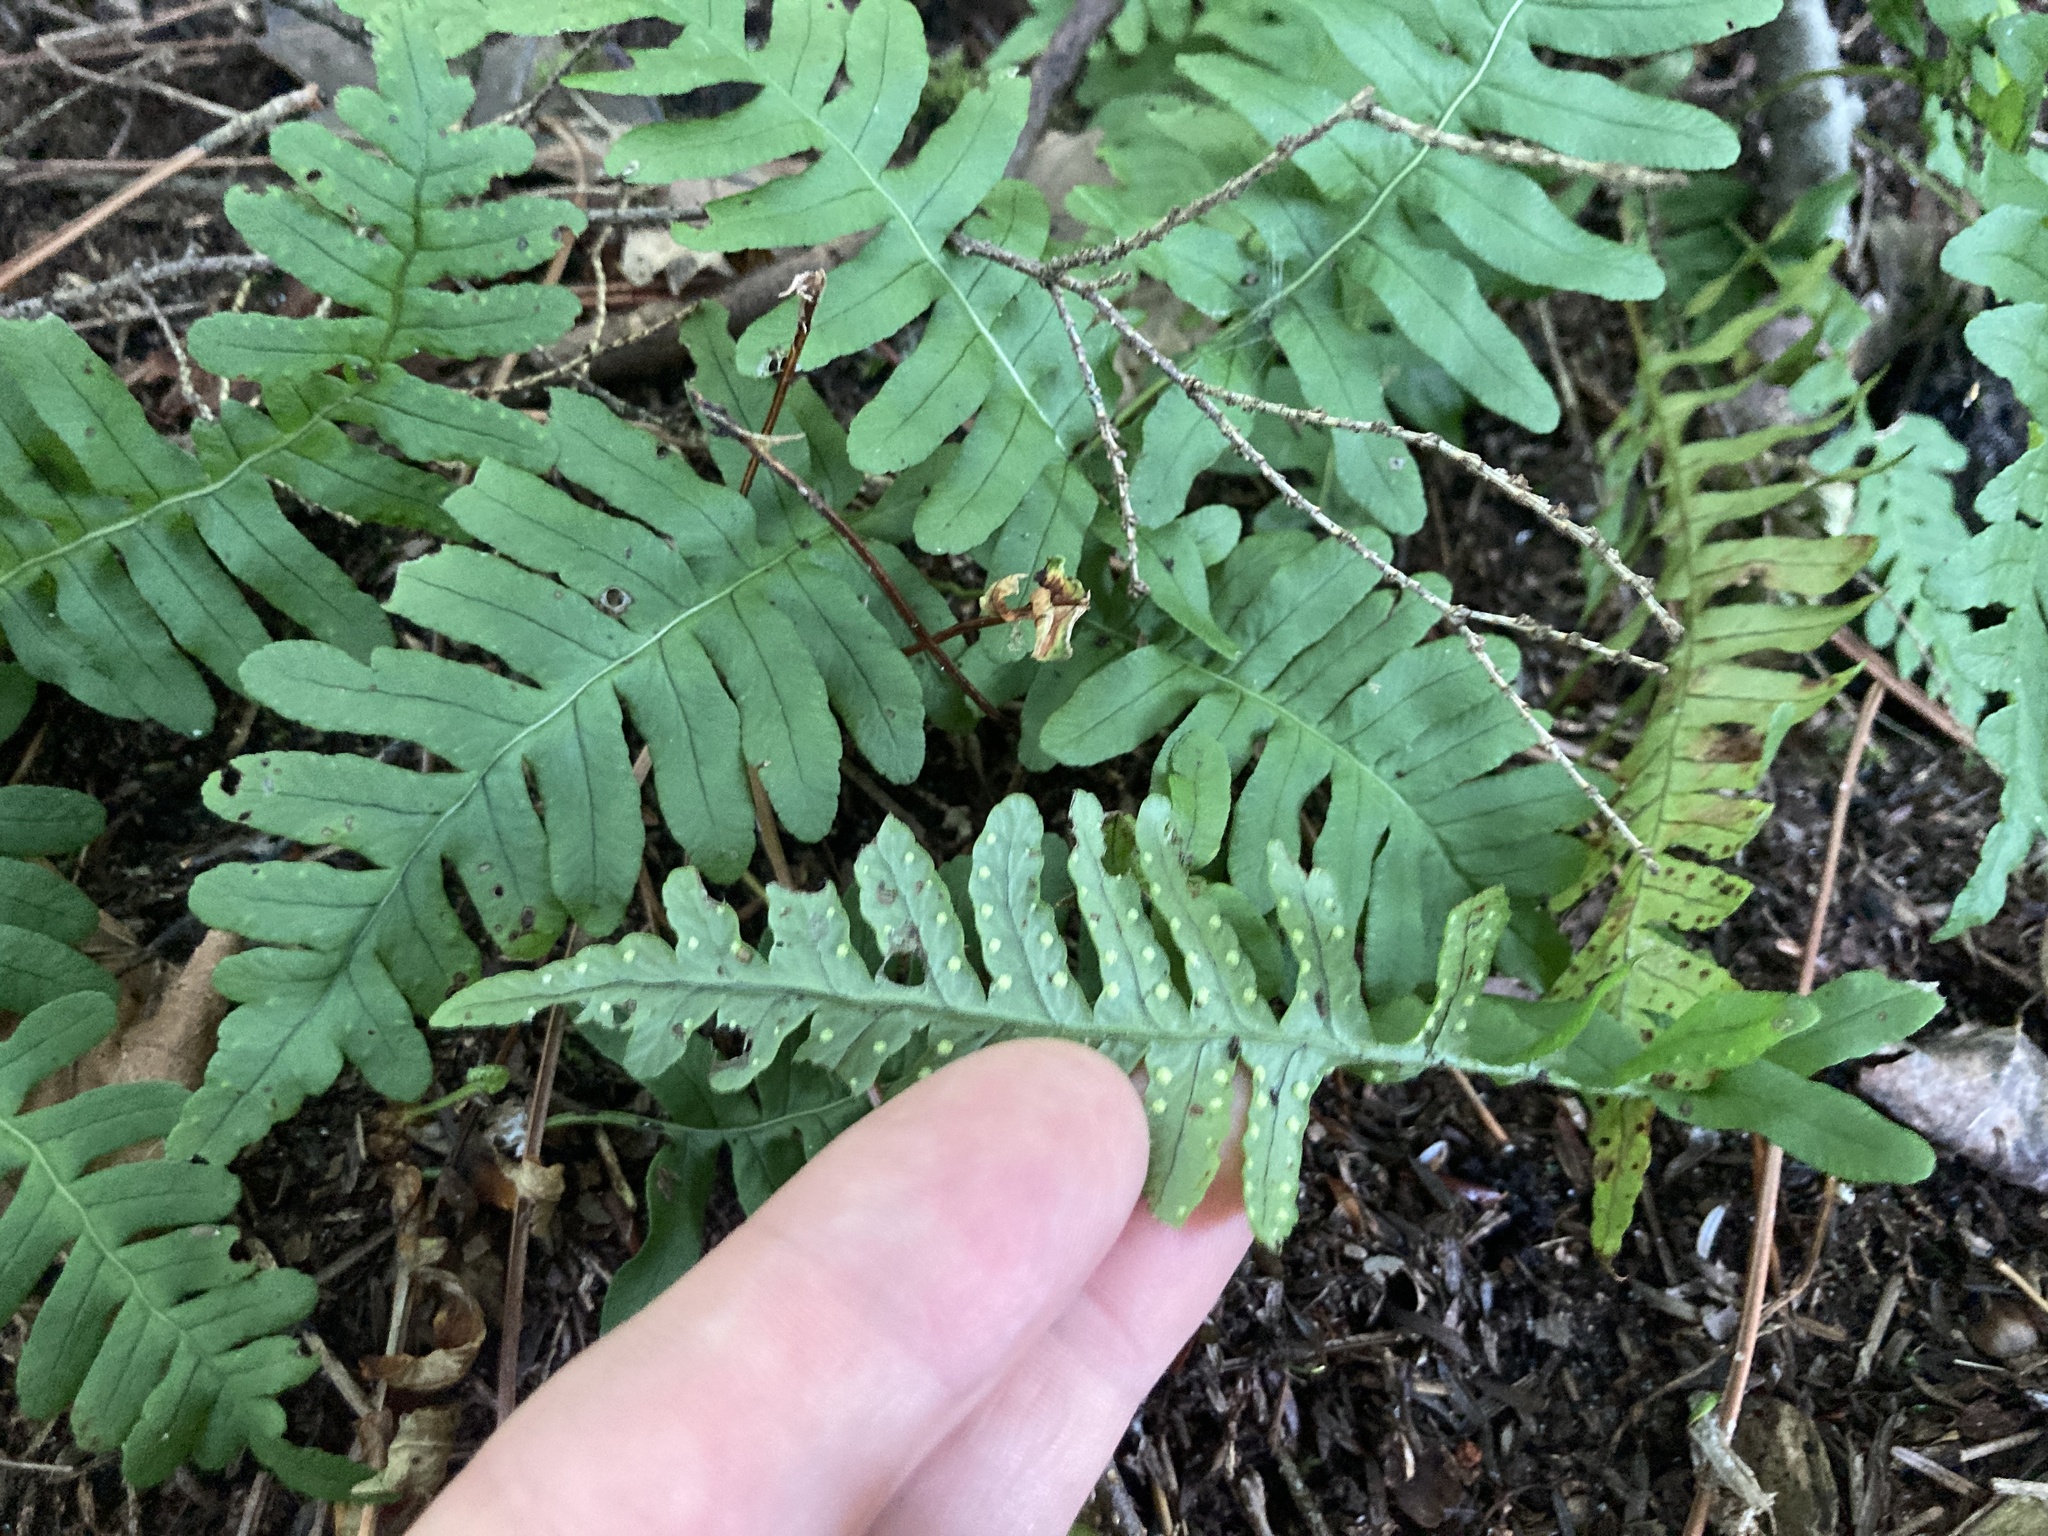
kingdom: Plantae
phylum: Tracheophyta
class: Polypodiopsida
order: Polypodiales
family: Polypodiaceae
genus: Polypodium
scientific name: Polypodium virginianum
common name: American wall fern
